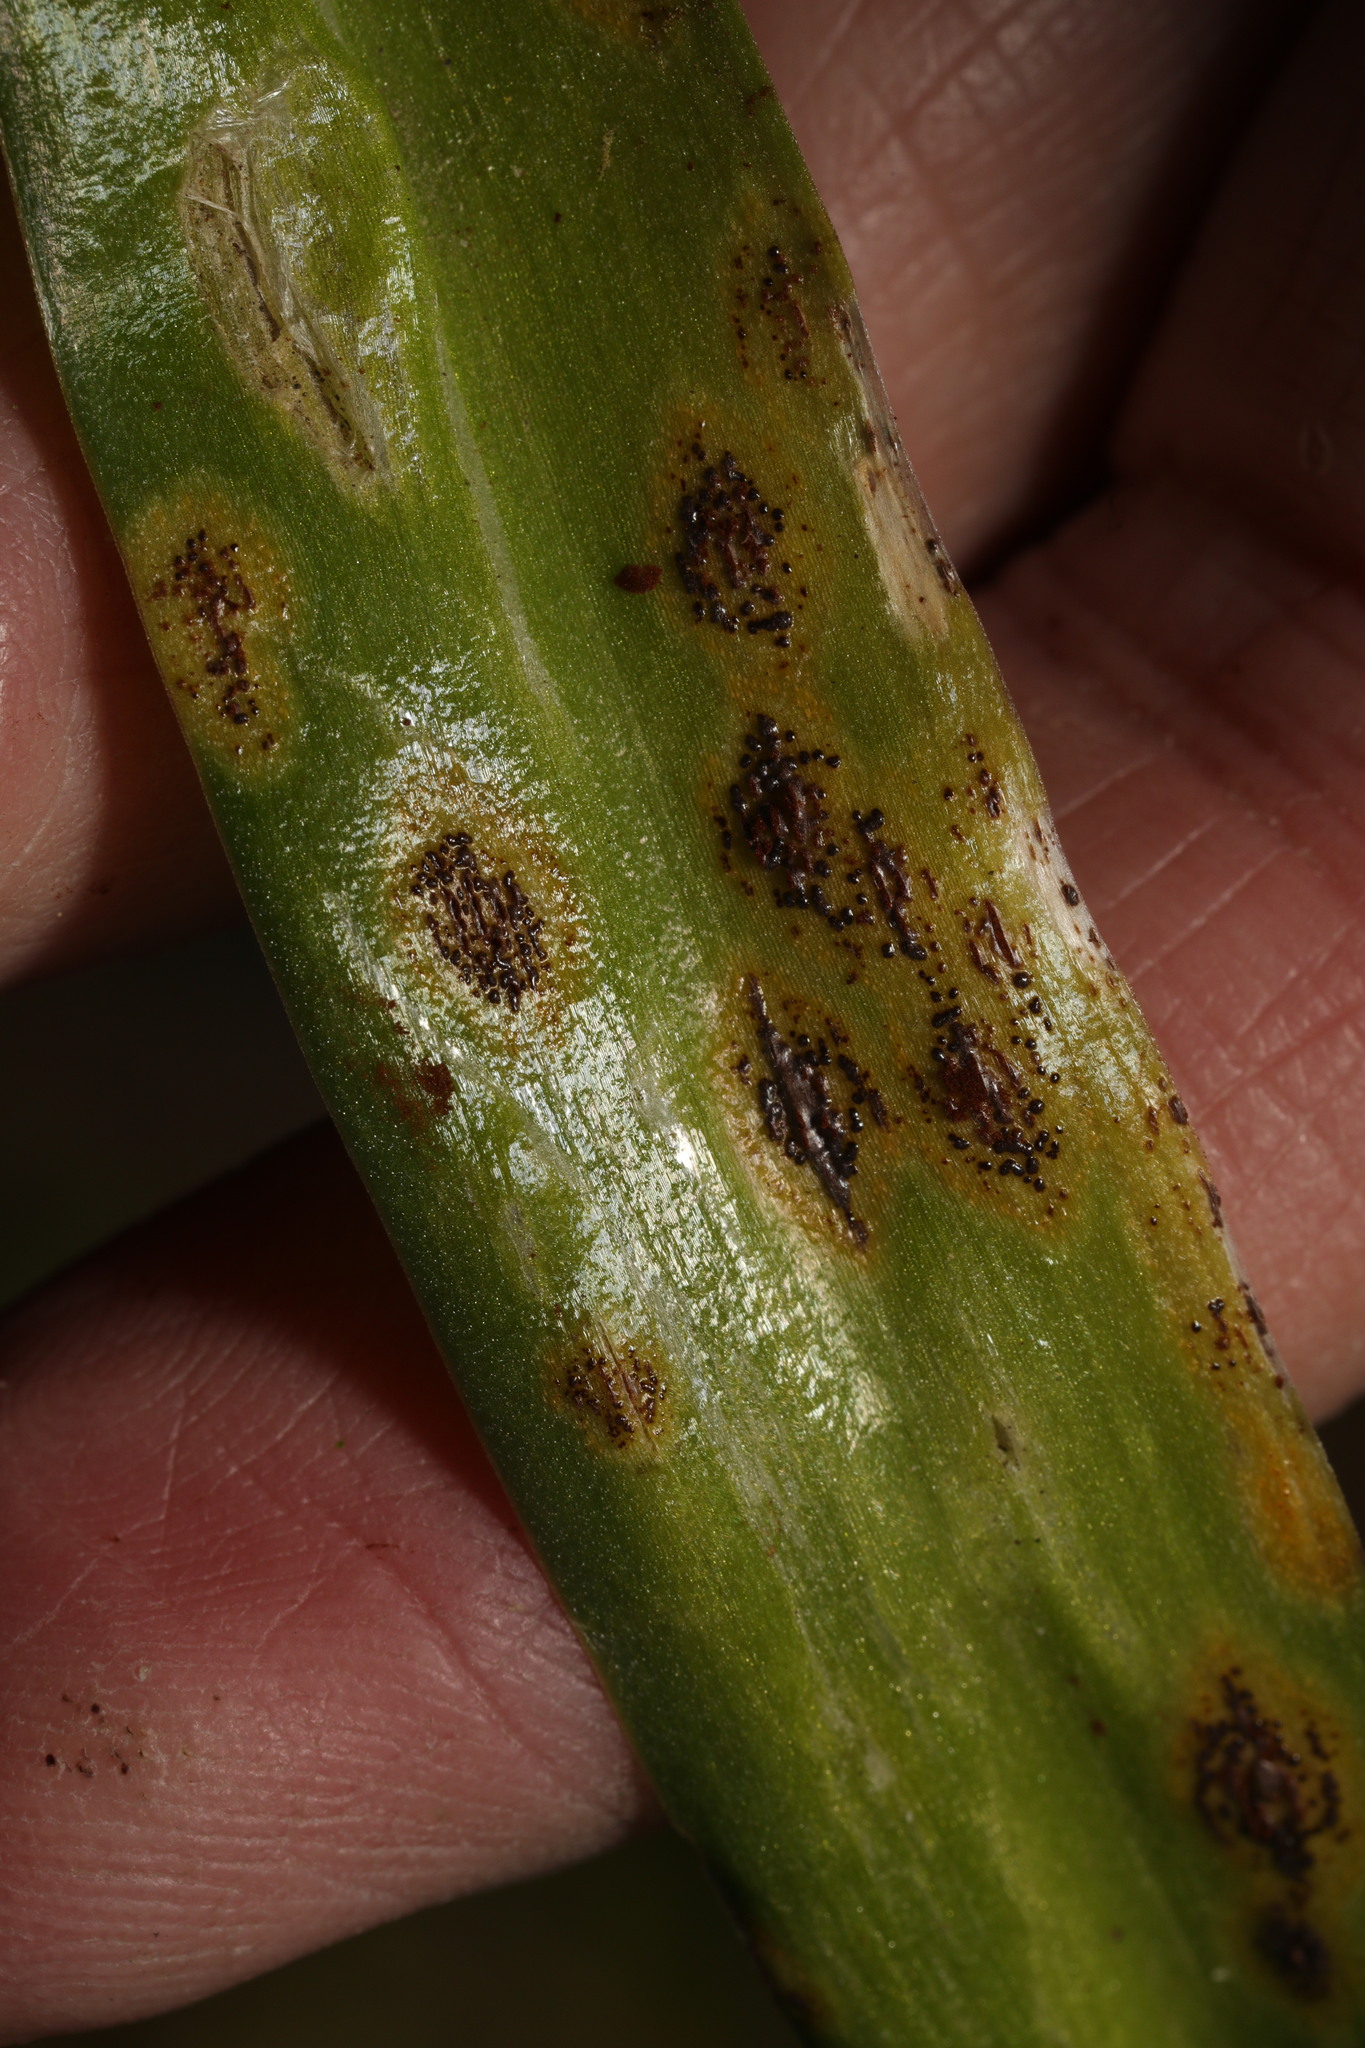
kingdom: Fungi
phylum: Basidiomycota
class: Pucciniomycetes
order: Pucciniales
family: Pucciniaceae
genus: Uromyces
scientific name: Uromyces hyacinthi
